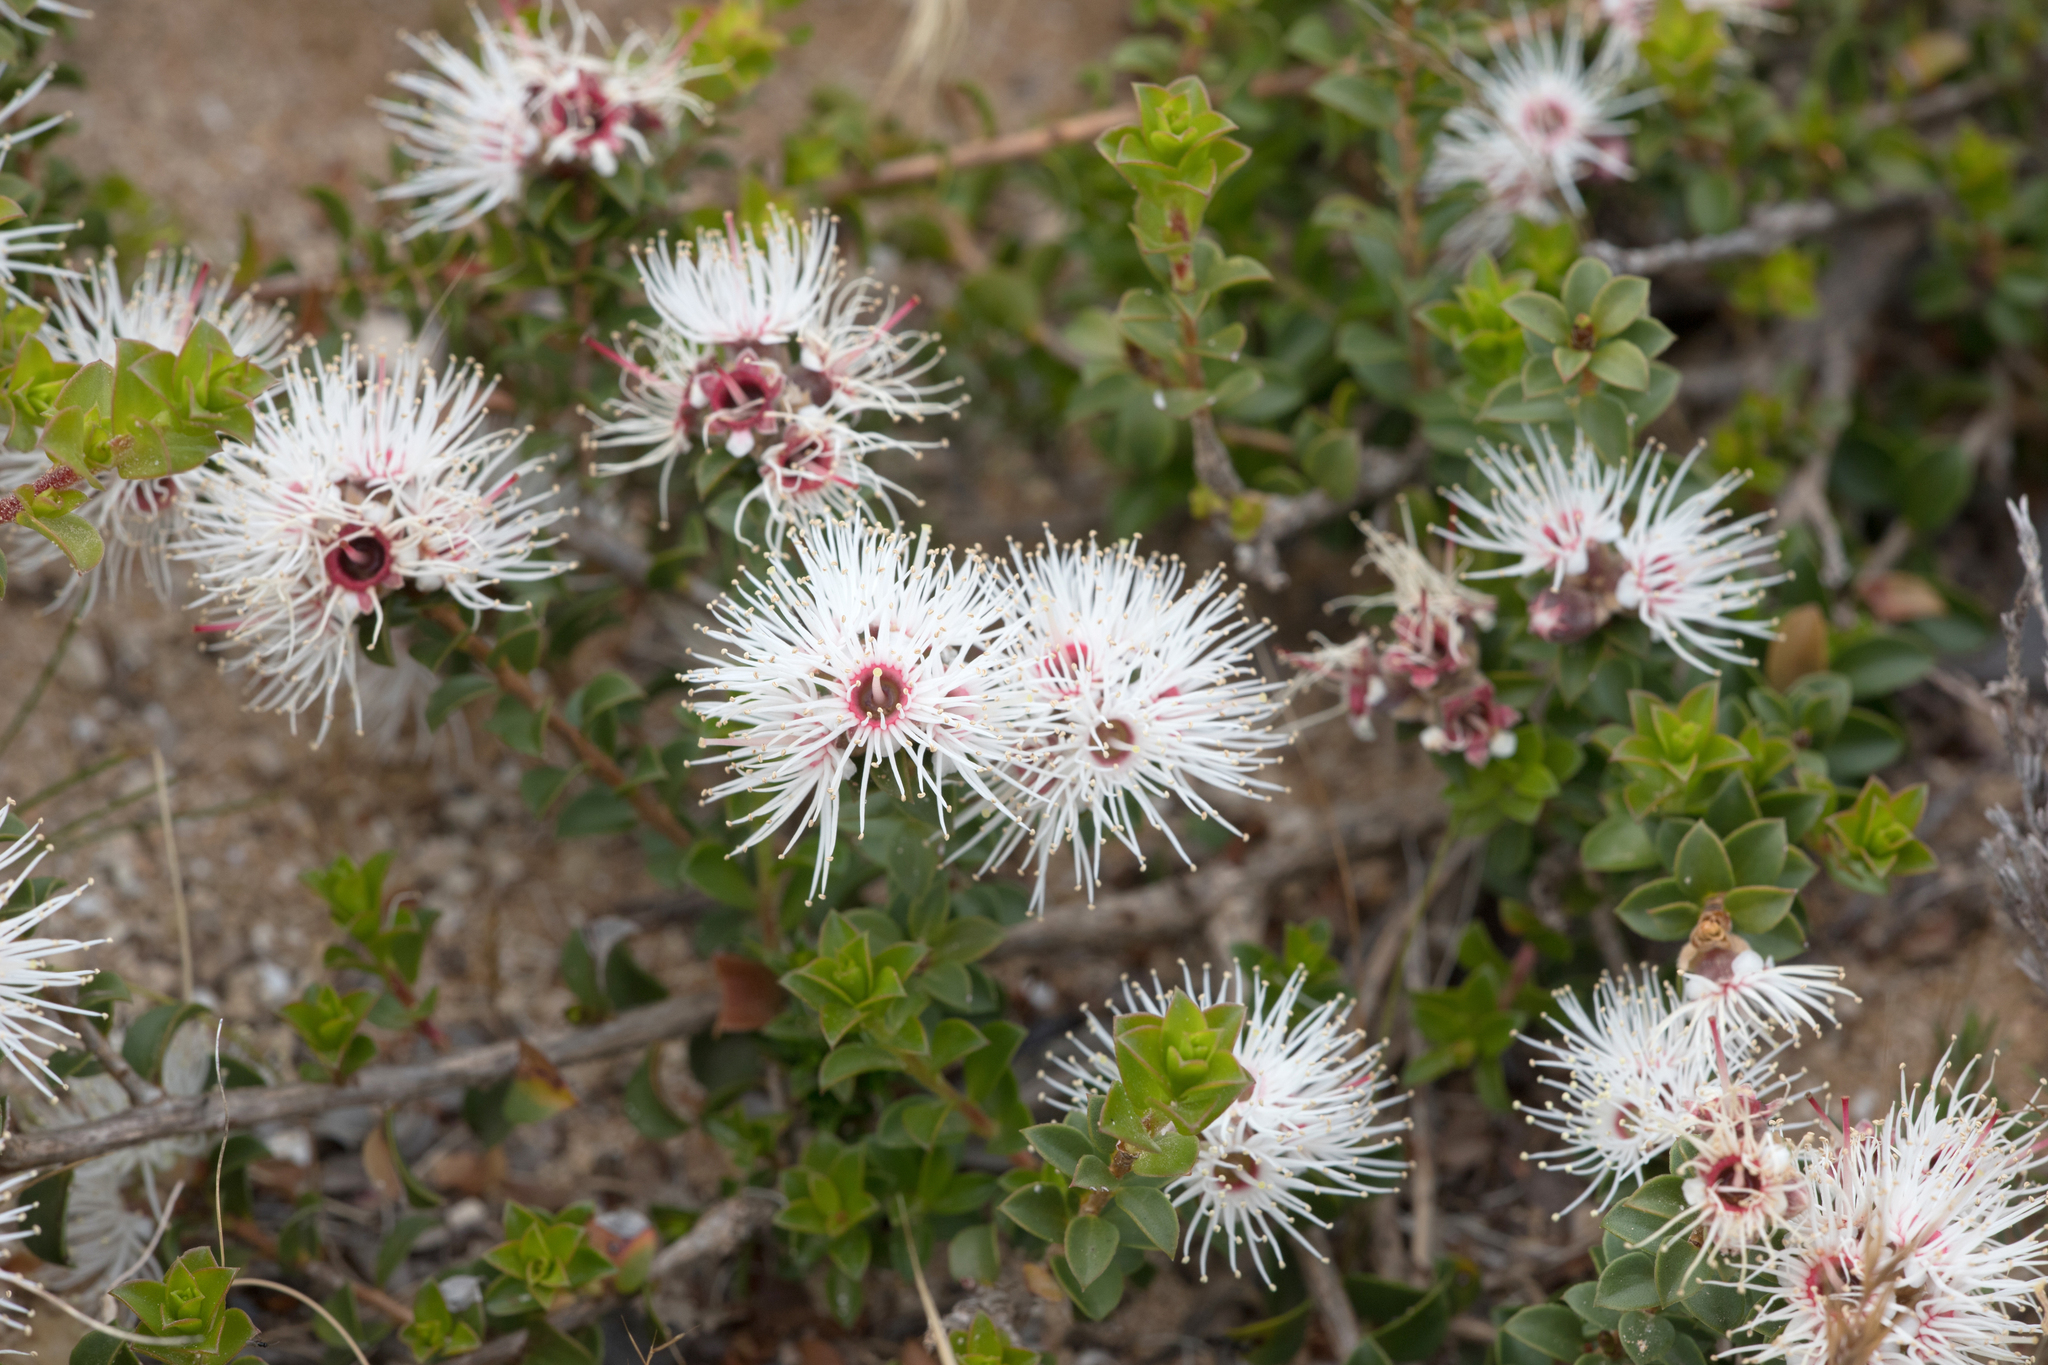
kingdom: Plantae
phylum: Tracheophyta
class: Magnoliopsida
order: Myrtales
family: Myrtaceae
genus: Kunzea
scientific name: Kunzea pomifera
